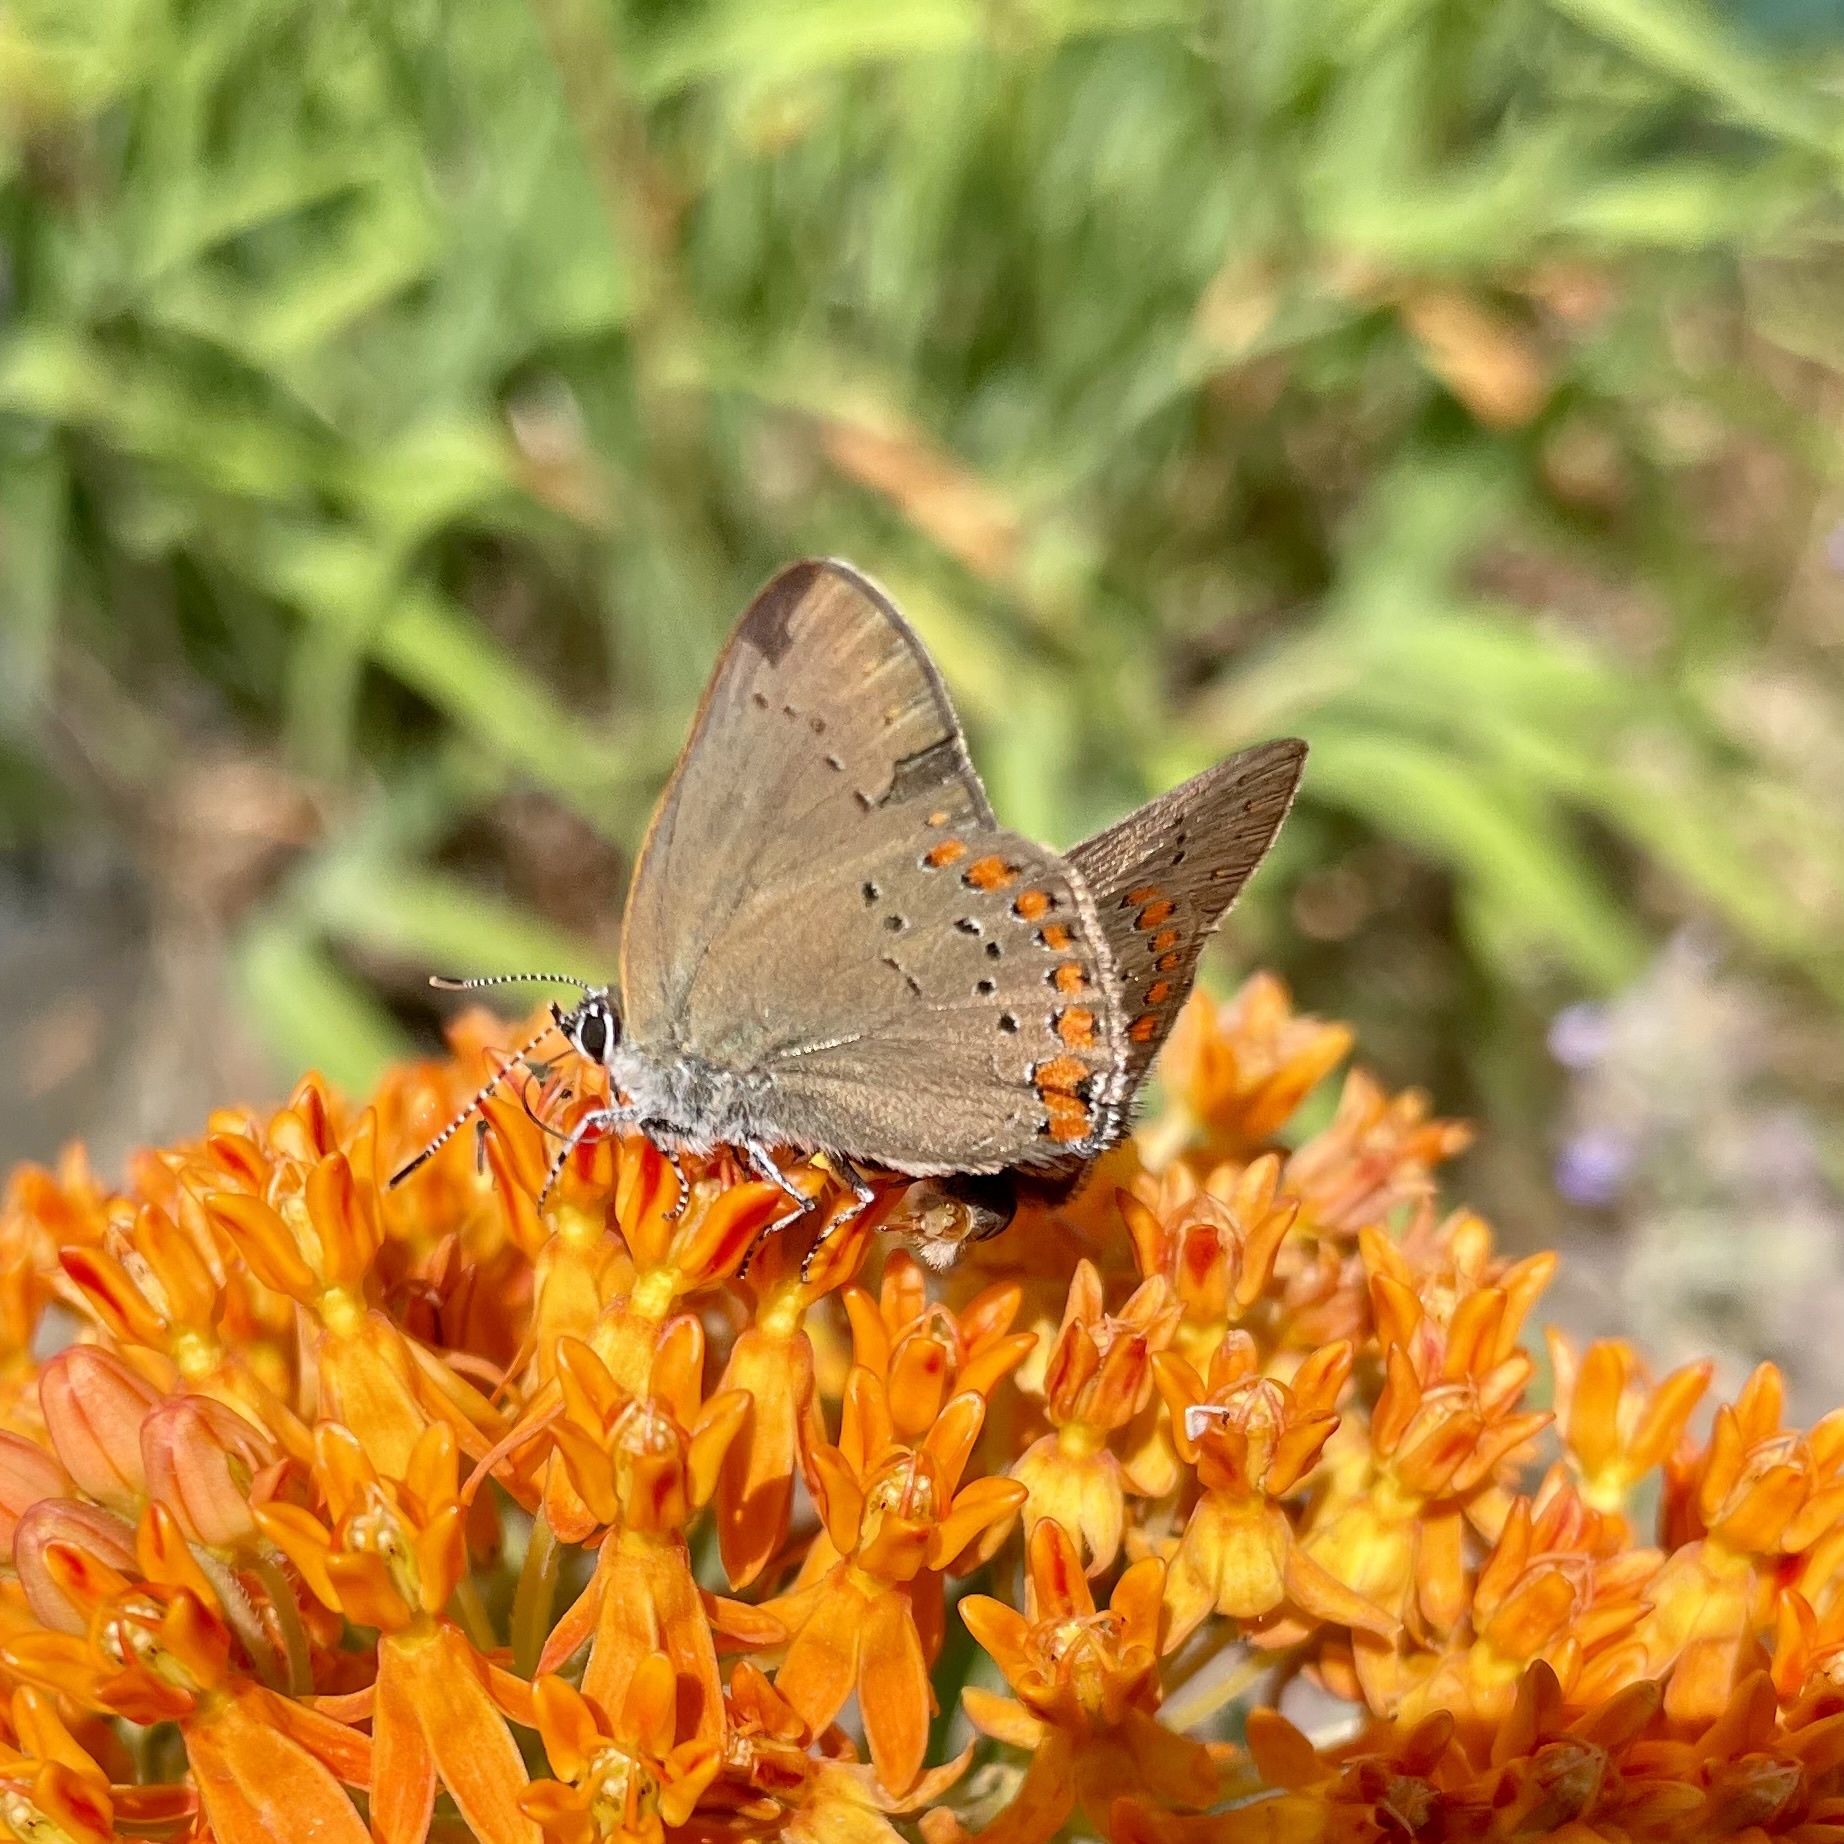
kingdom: Animalia
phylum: Arthropoda
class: Insecta
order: Lepidoptera
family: Lycaenidae
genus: Harkenclenus
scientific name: Harkenclenus titus
